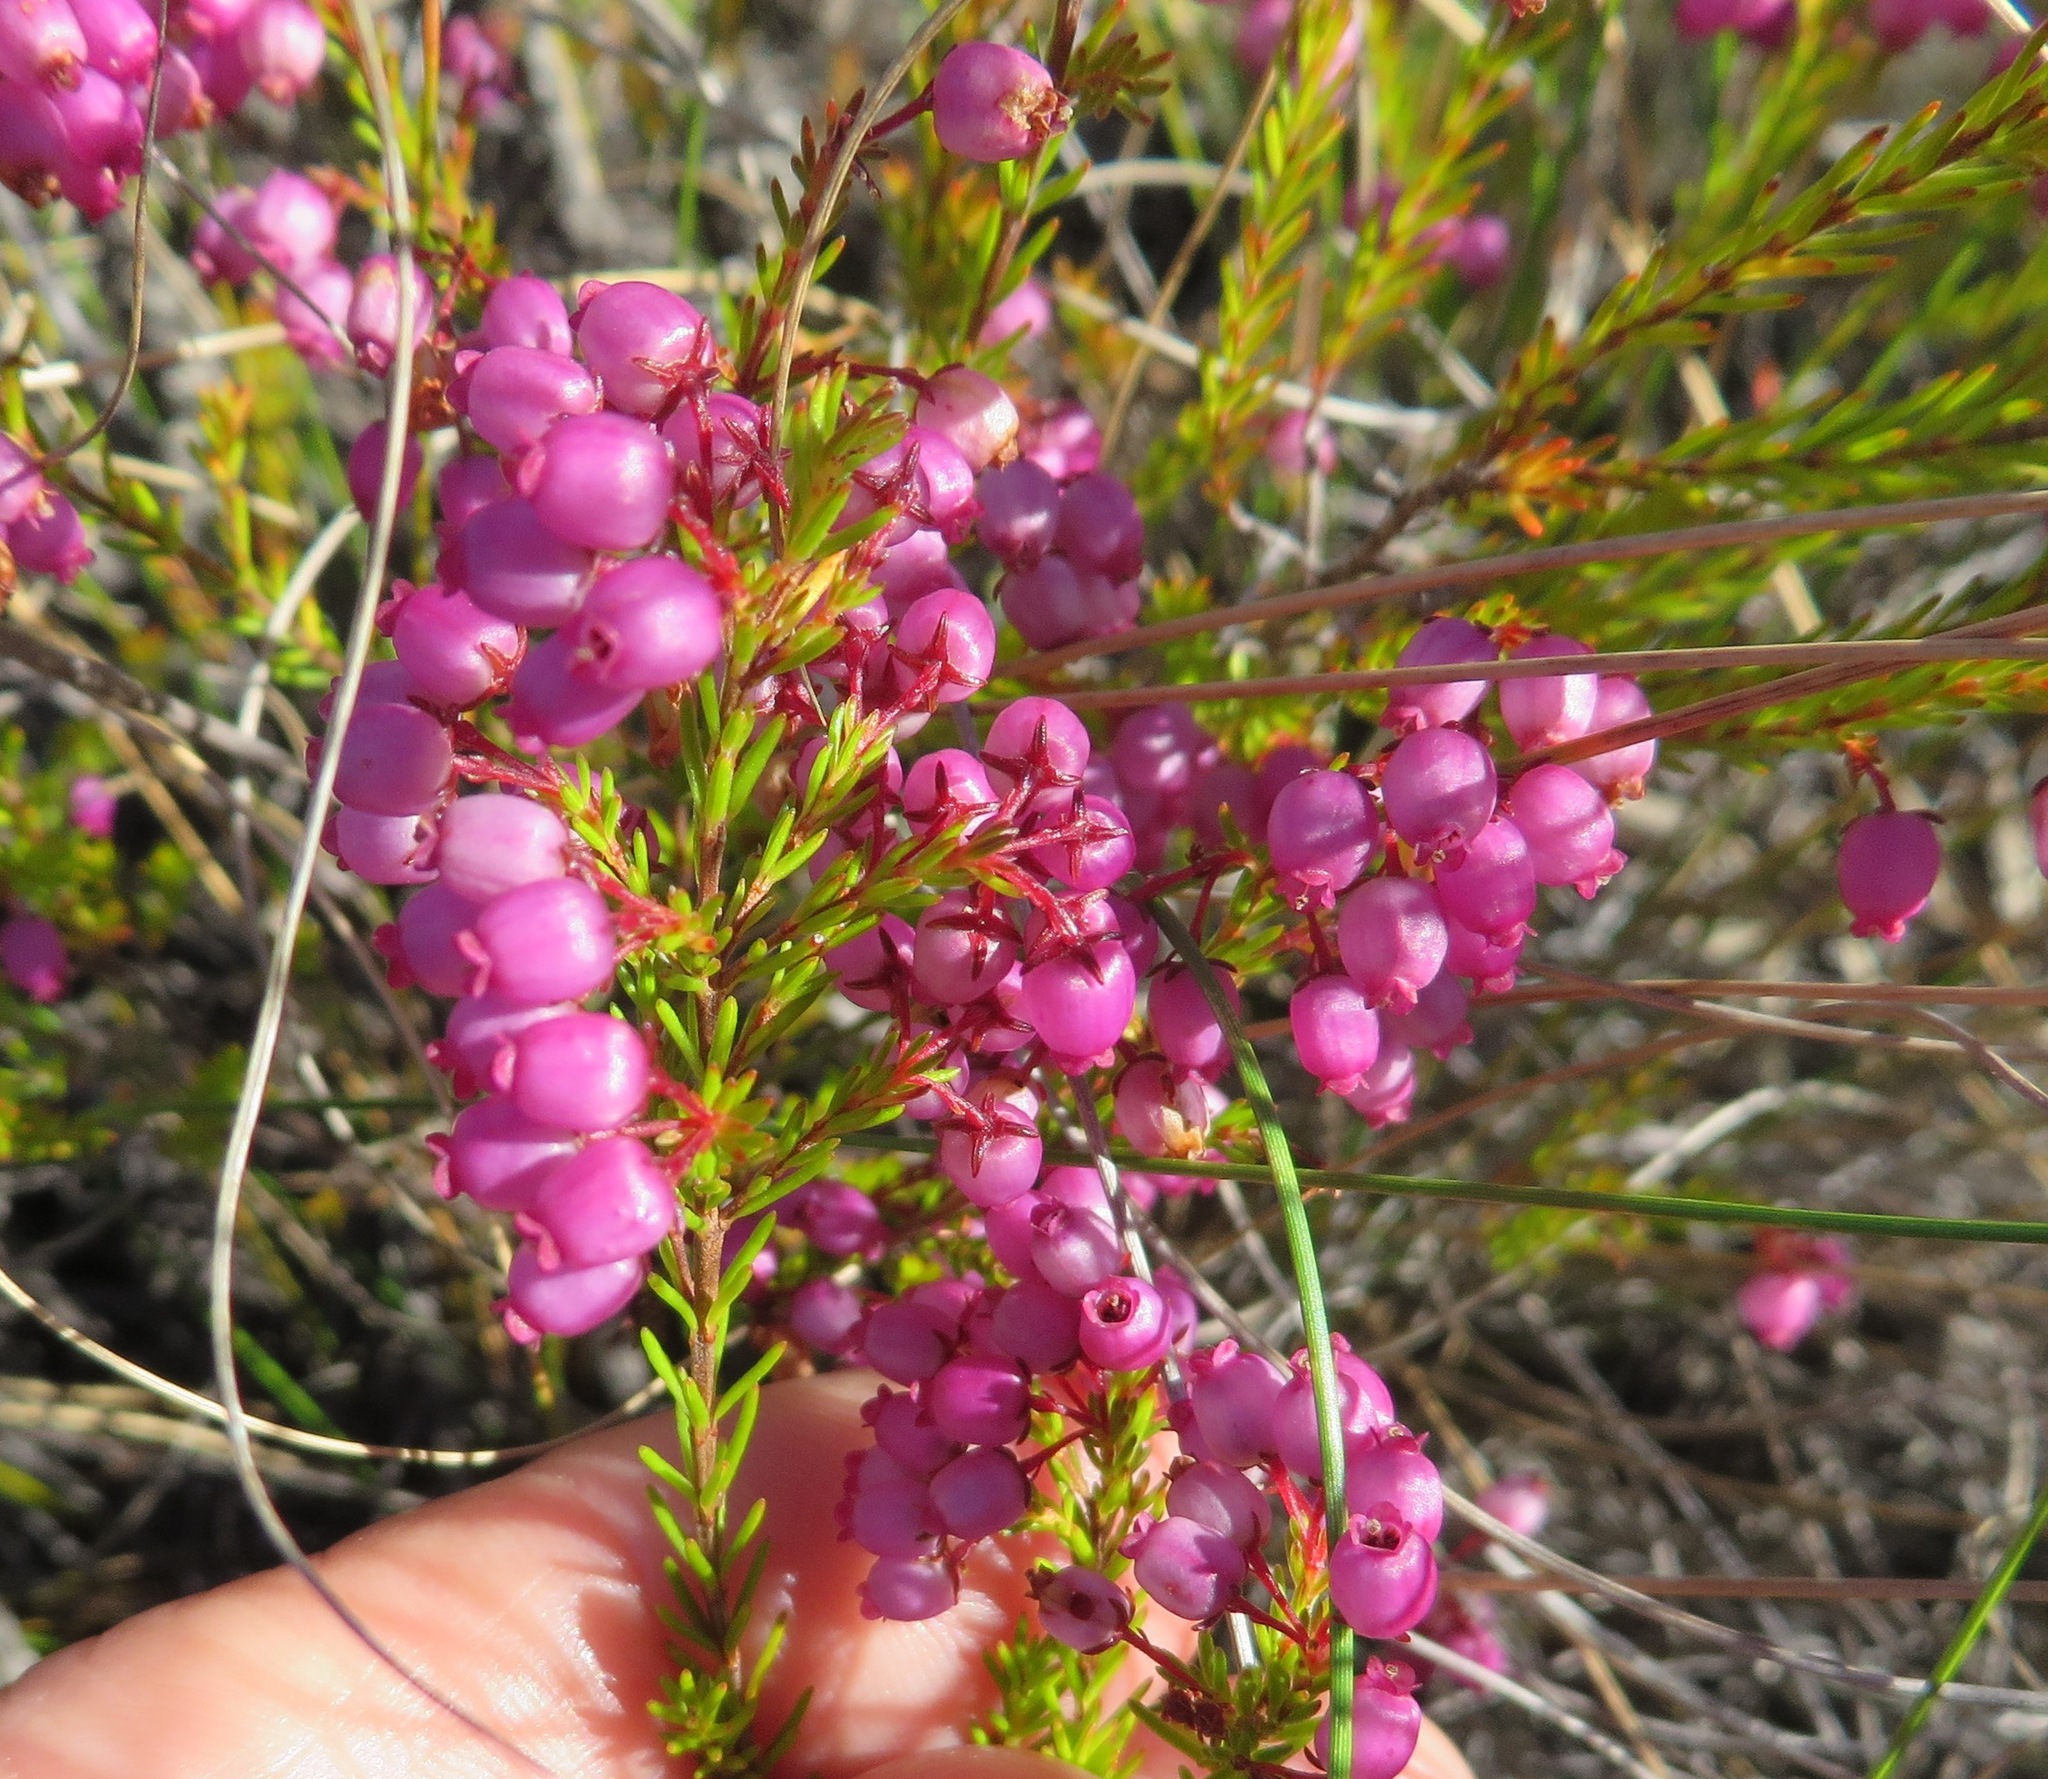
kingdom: Plantae
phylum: Tracheophyta
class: Magnoliopsida
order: Ericales
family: Ericaceae
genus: Erica
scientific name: Erica multumbellifera
